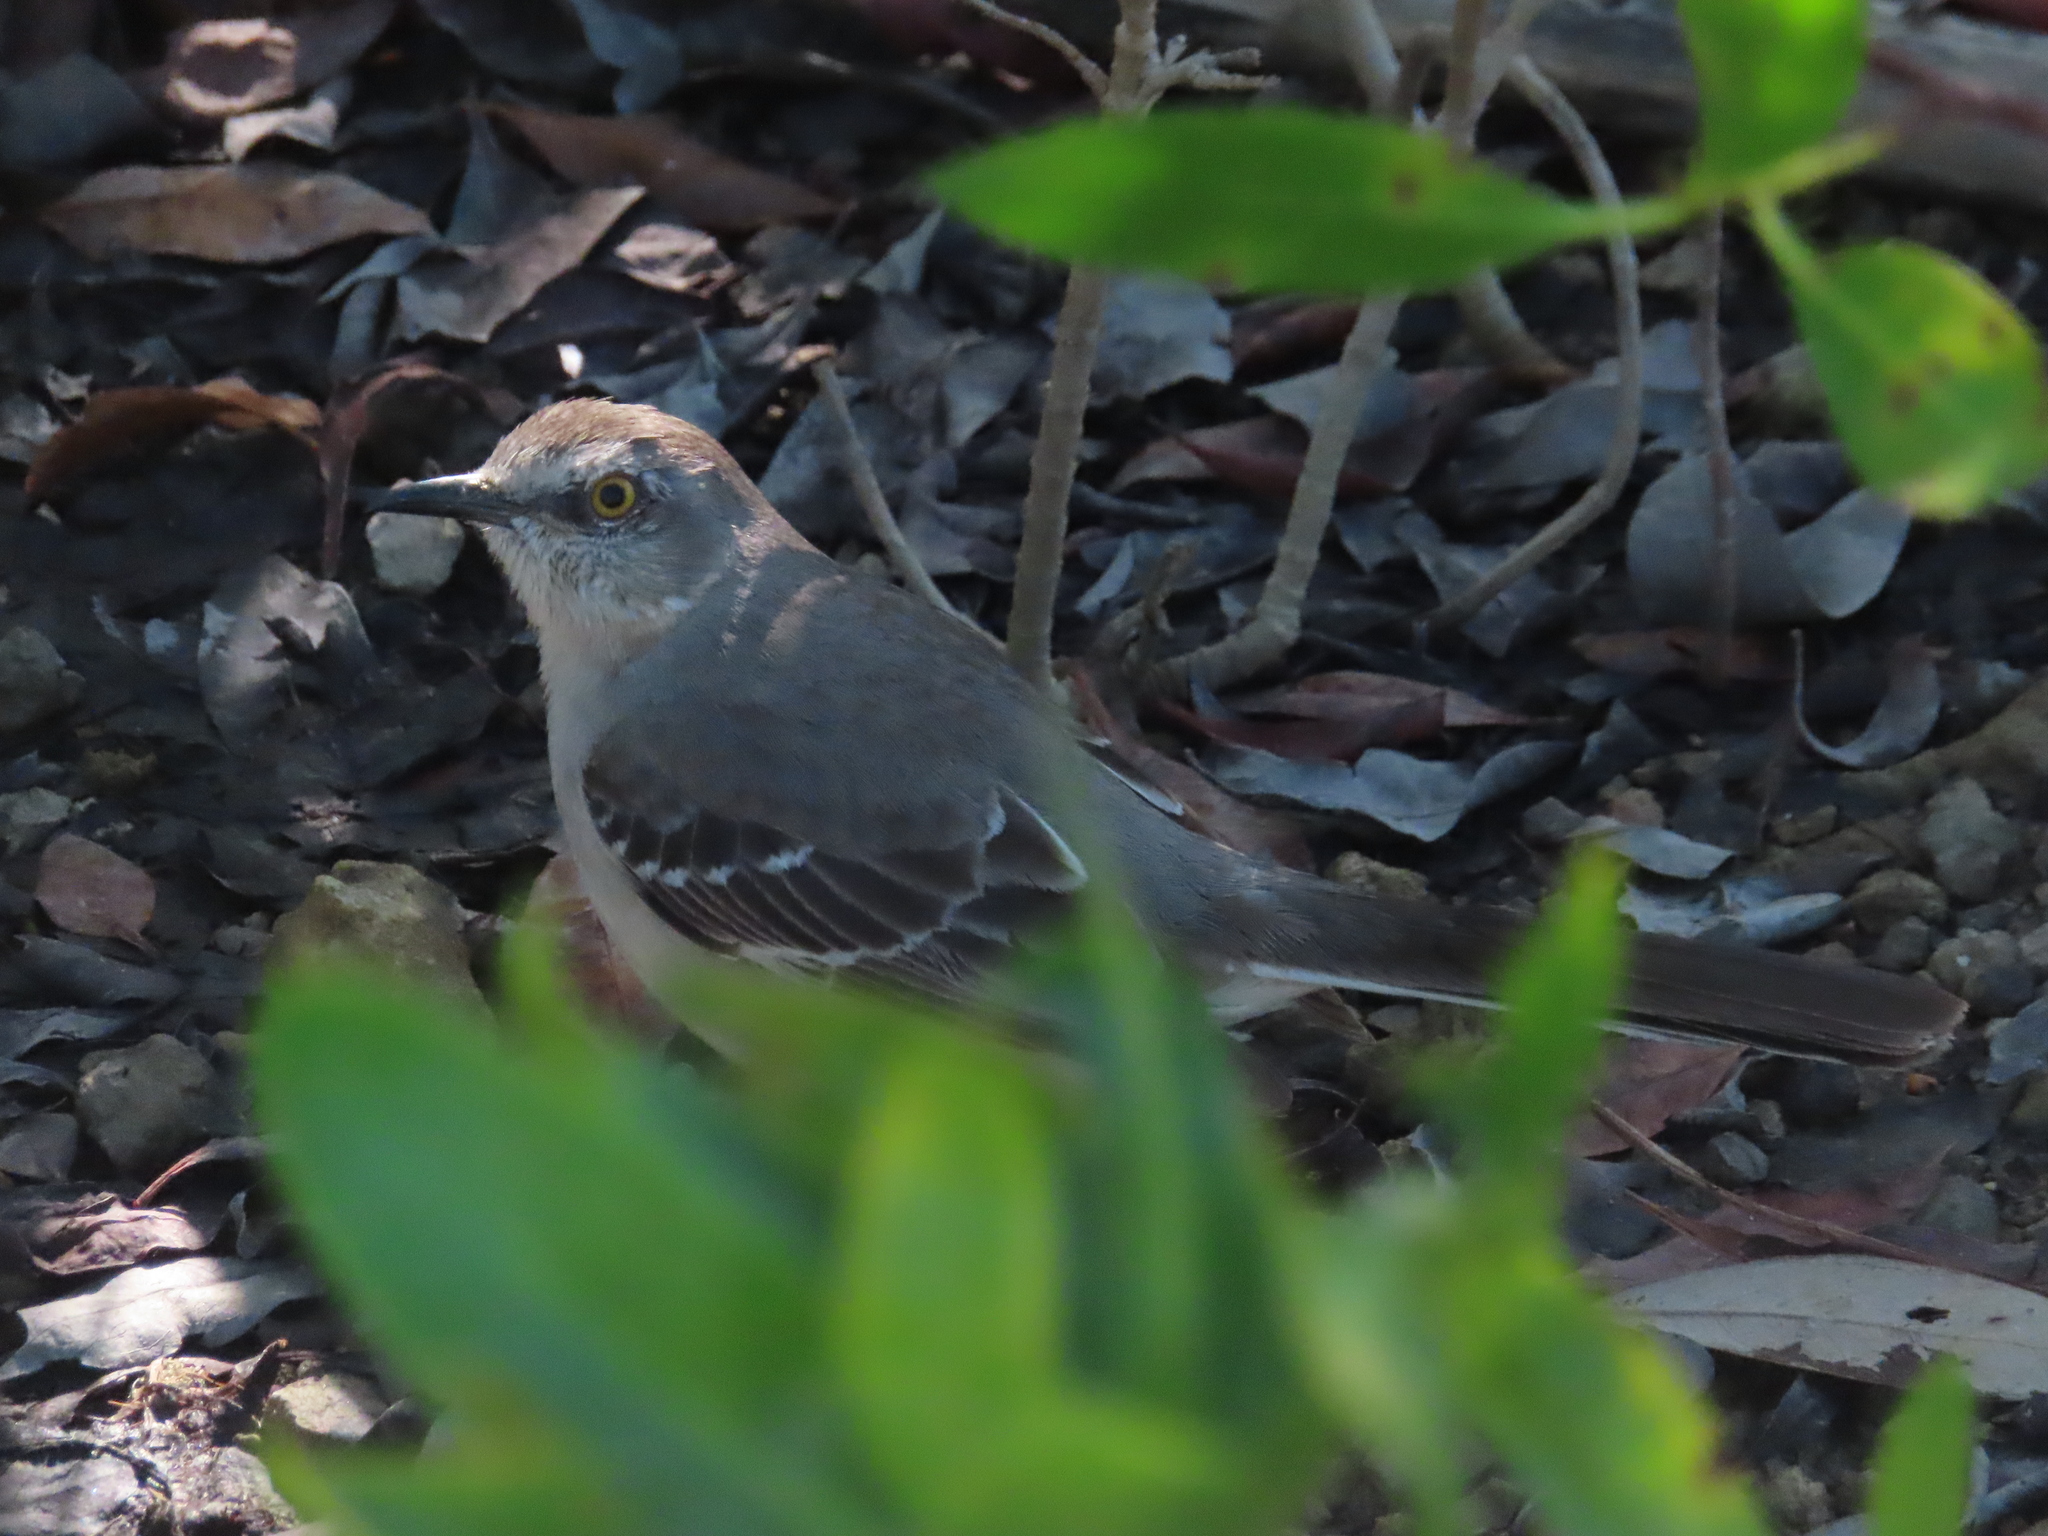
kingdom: Animalia
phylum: Chordata
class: Aves
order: Passeriformes
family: Mimidae
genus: Mimus
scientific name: Mimus polyglottos
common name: Northern mockingbird
